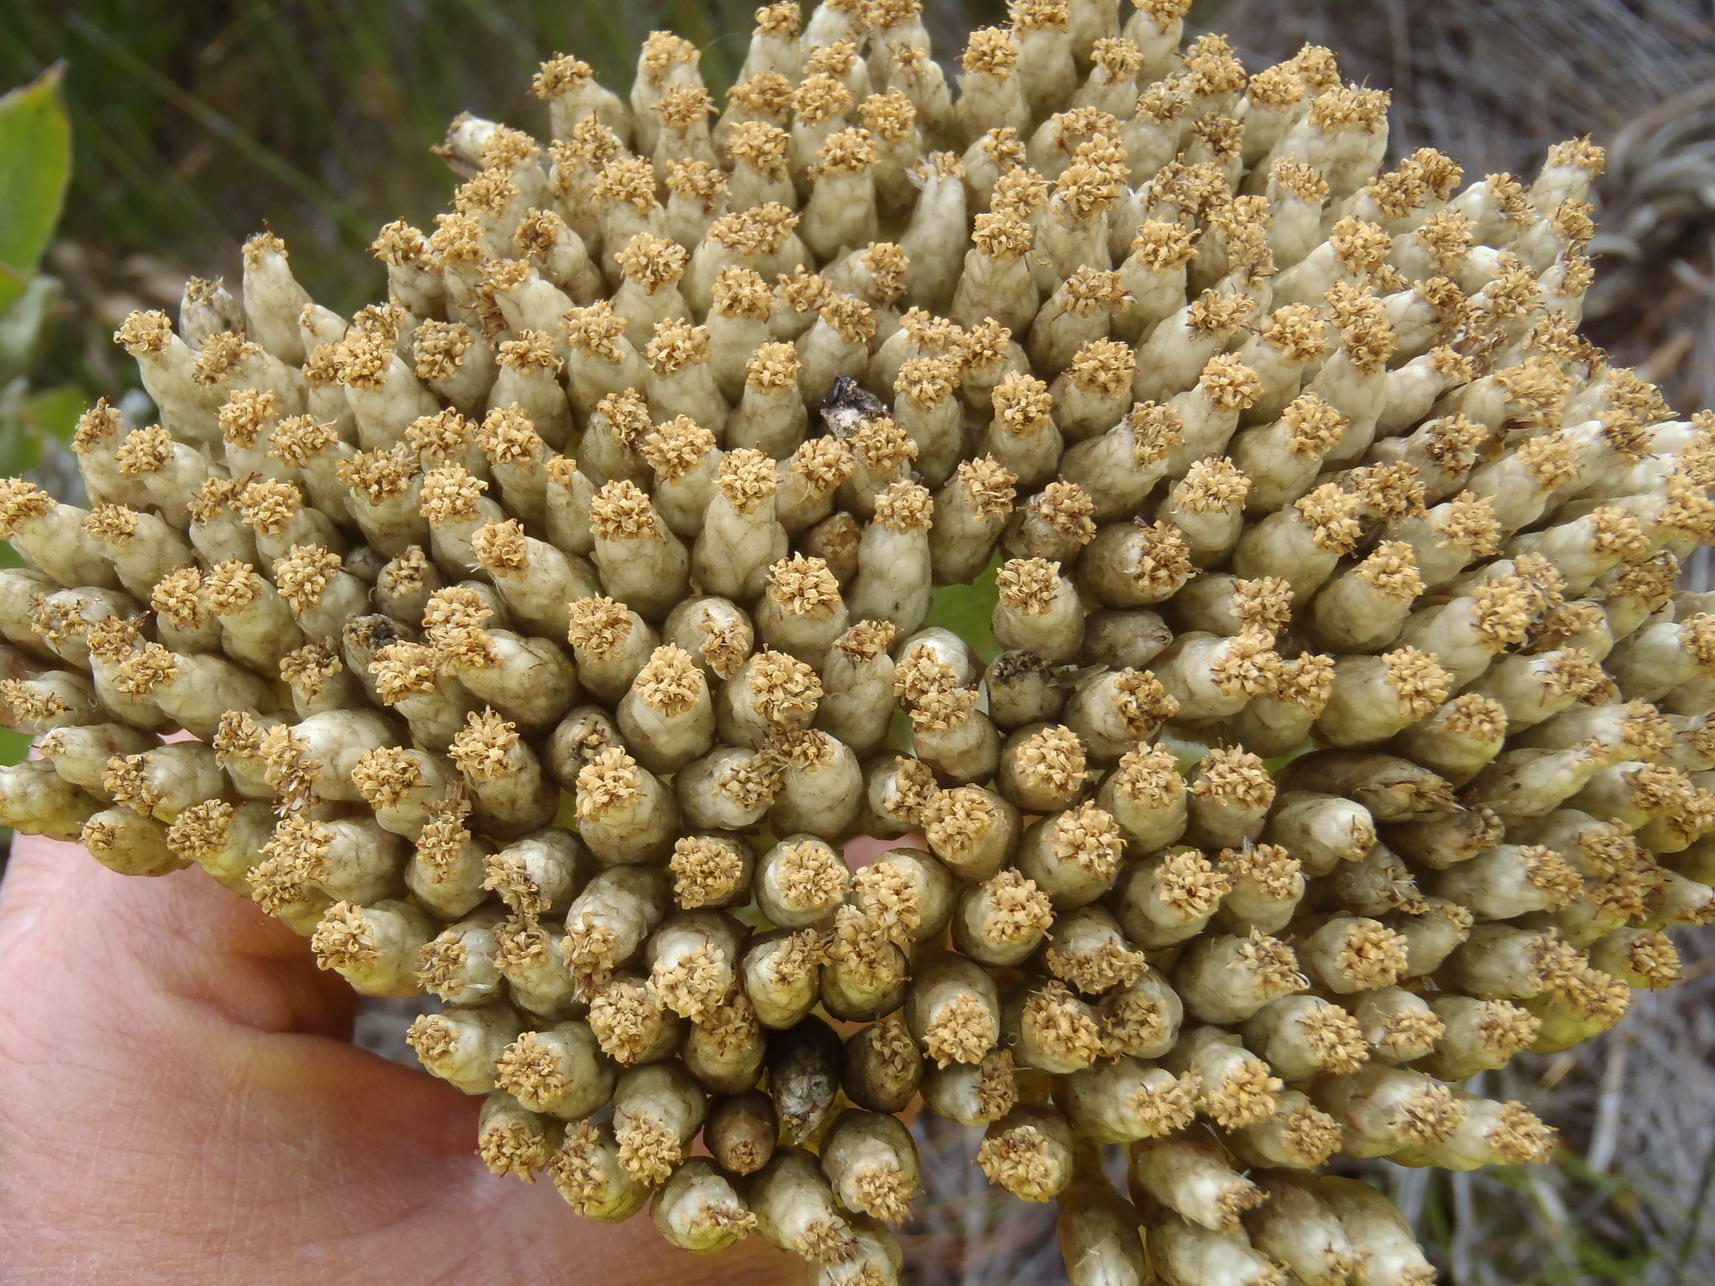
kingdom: Plantae
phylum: Tracheophyta
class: Magnoliopsida
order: Asterales
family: Asteraceae
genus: Syncarpha
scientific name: Syncarpha milleflora
